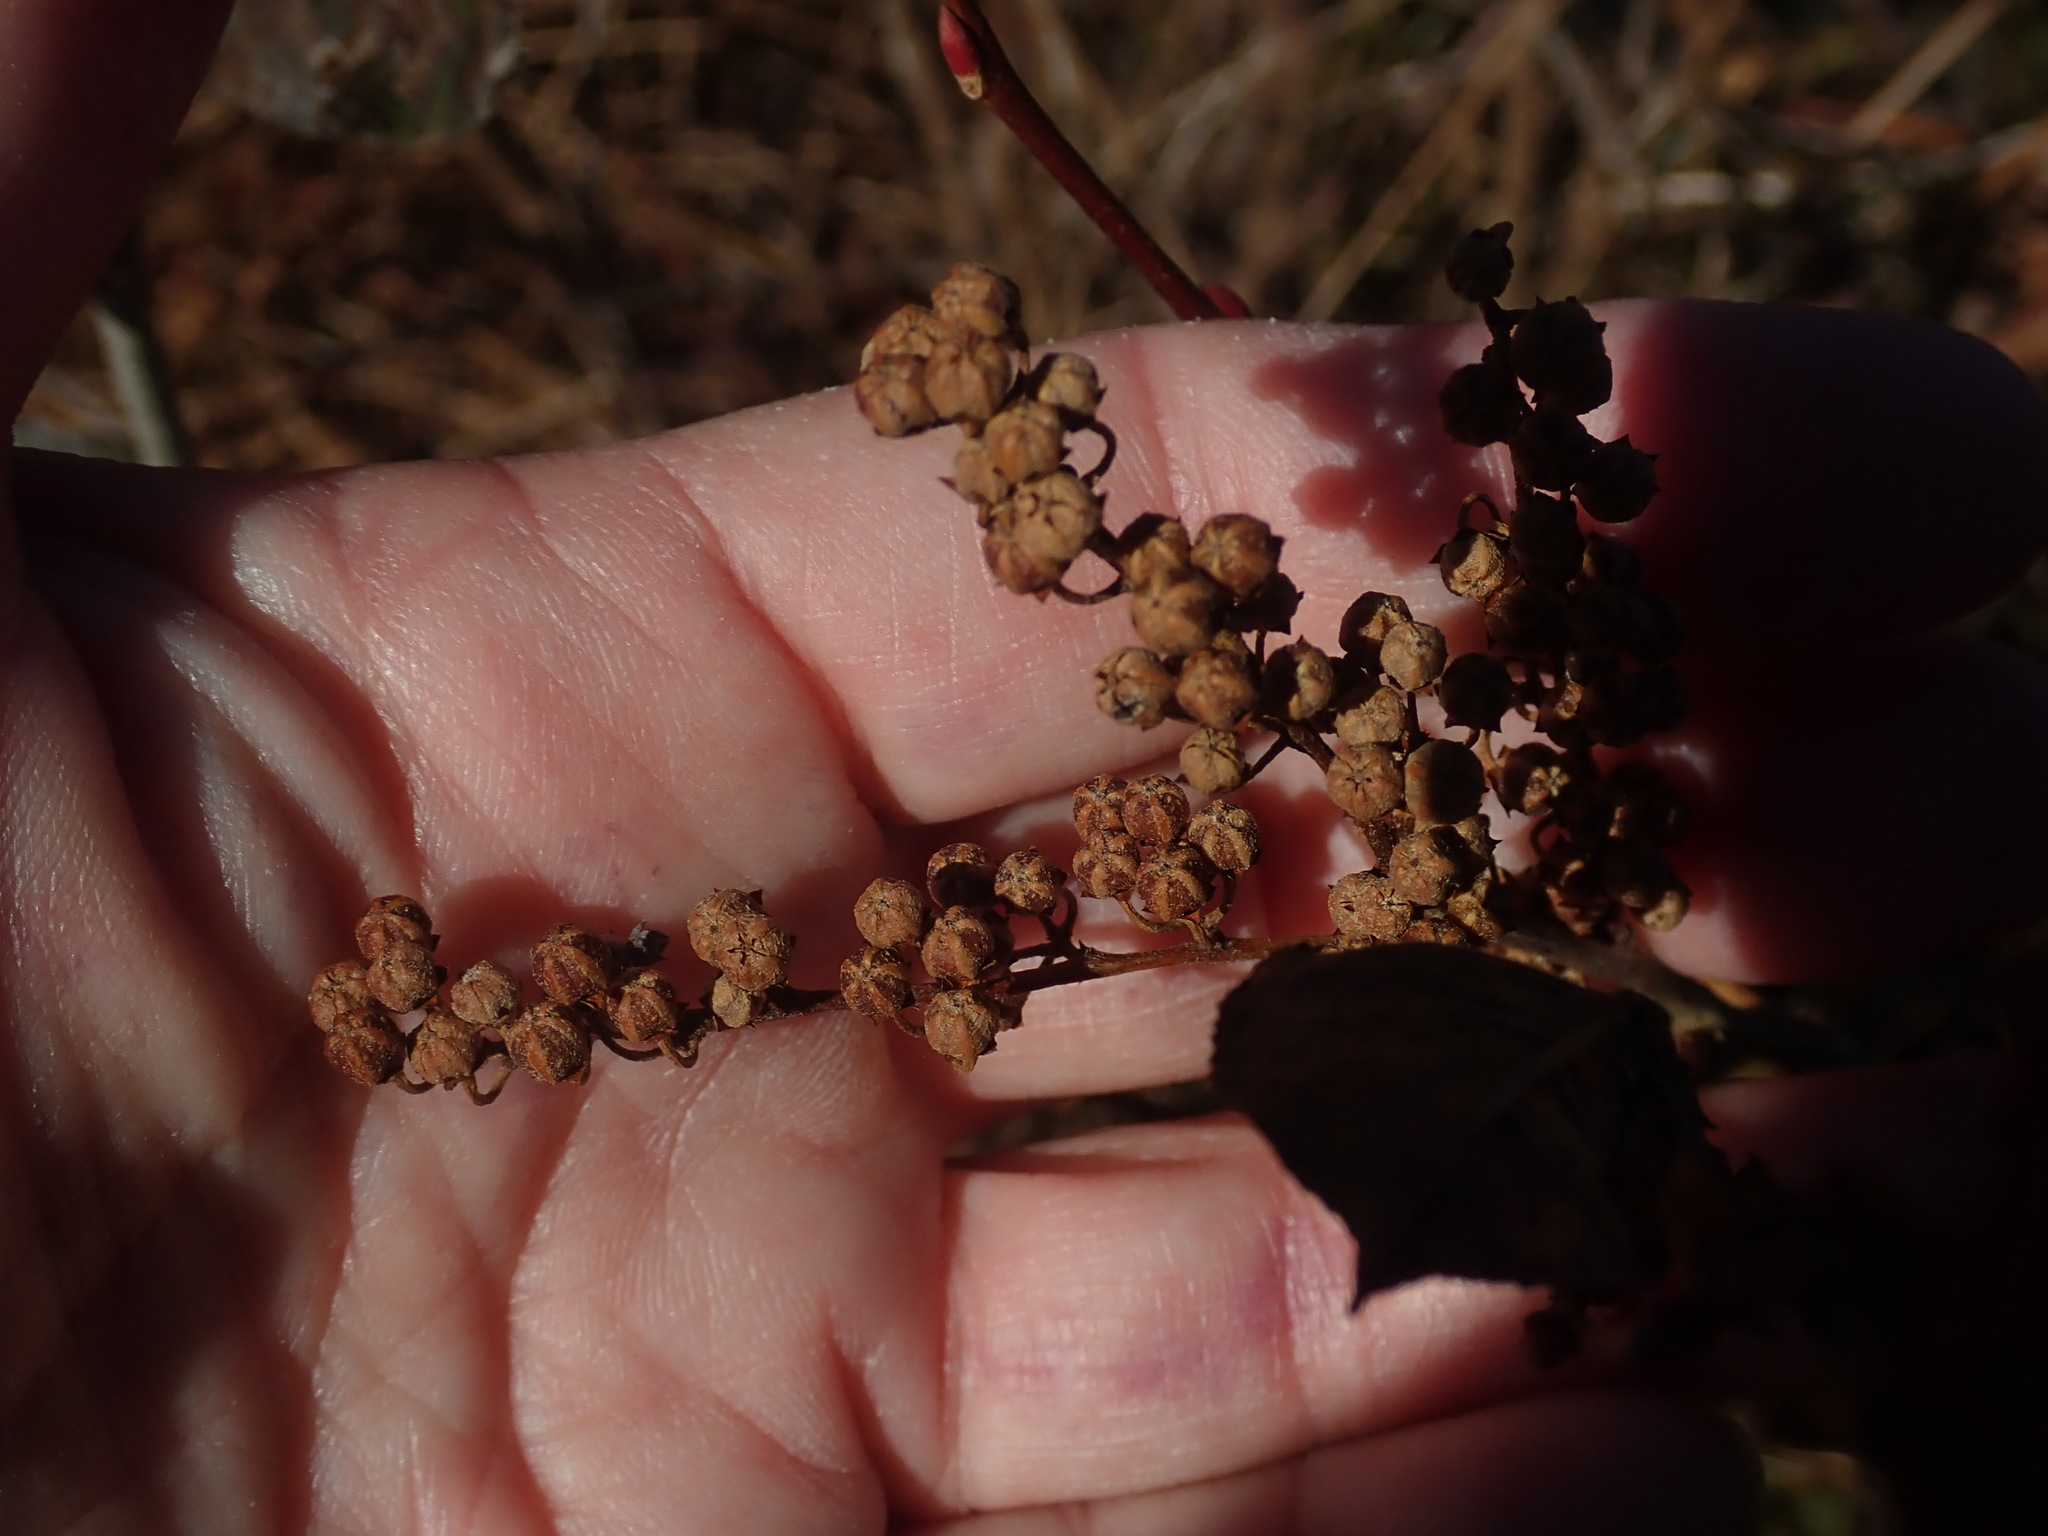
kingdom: Plantae
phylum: Tracheophyta
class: Magnoliopsida
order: Ericales
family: Ericaceae
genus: Lyonia
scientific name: Lyonia ligustrina
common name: Maleberry
